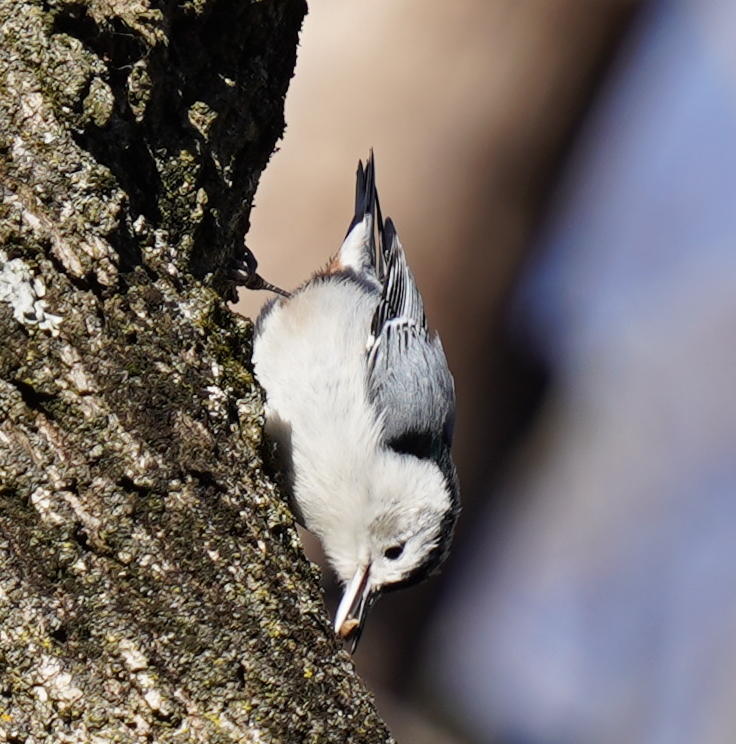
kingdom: Animalia
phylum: Chordata
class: Aves
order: Passeriformes
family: Sittidae
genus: Sitta
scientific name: Sitta carolinensis
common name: White-breasted nuthatch
